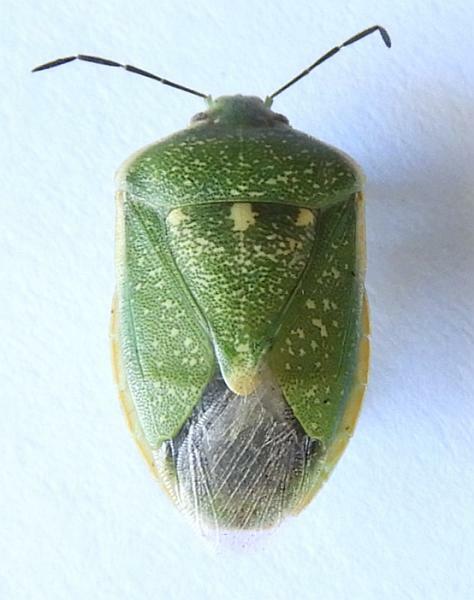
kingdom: Animalia
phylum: Arthropoda
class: Insecta
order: Hemiptera
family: Pentatomidae
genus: Chlorochroa
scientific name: Chlorochroa sayi
